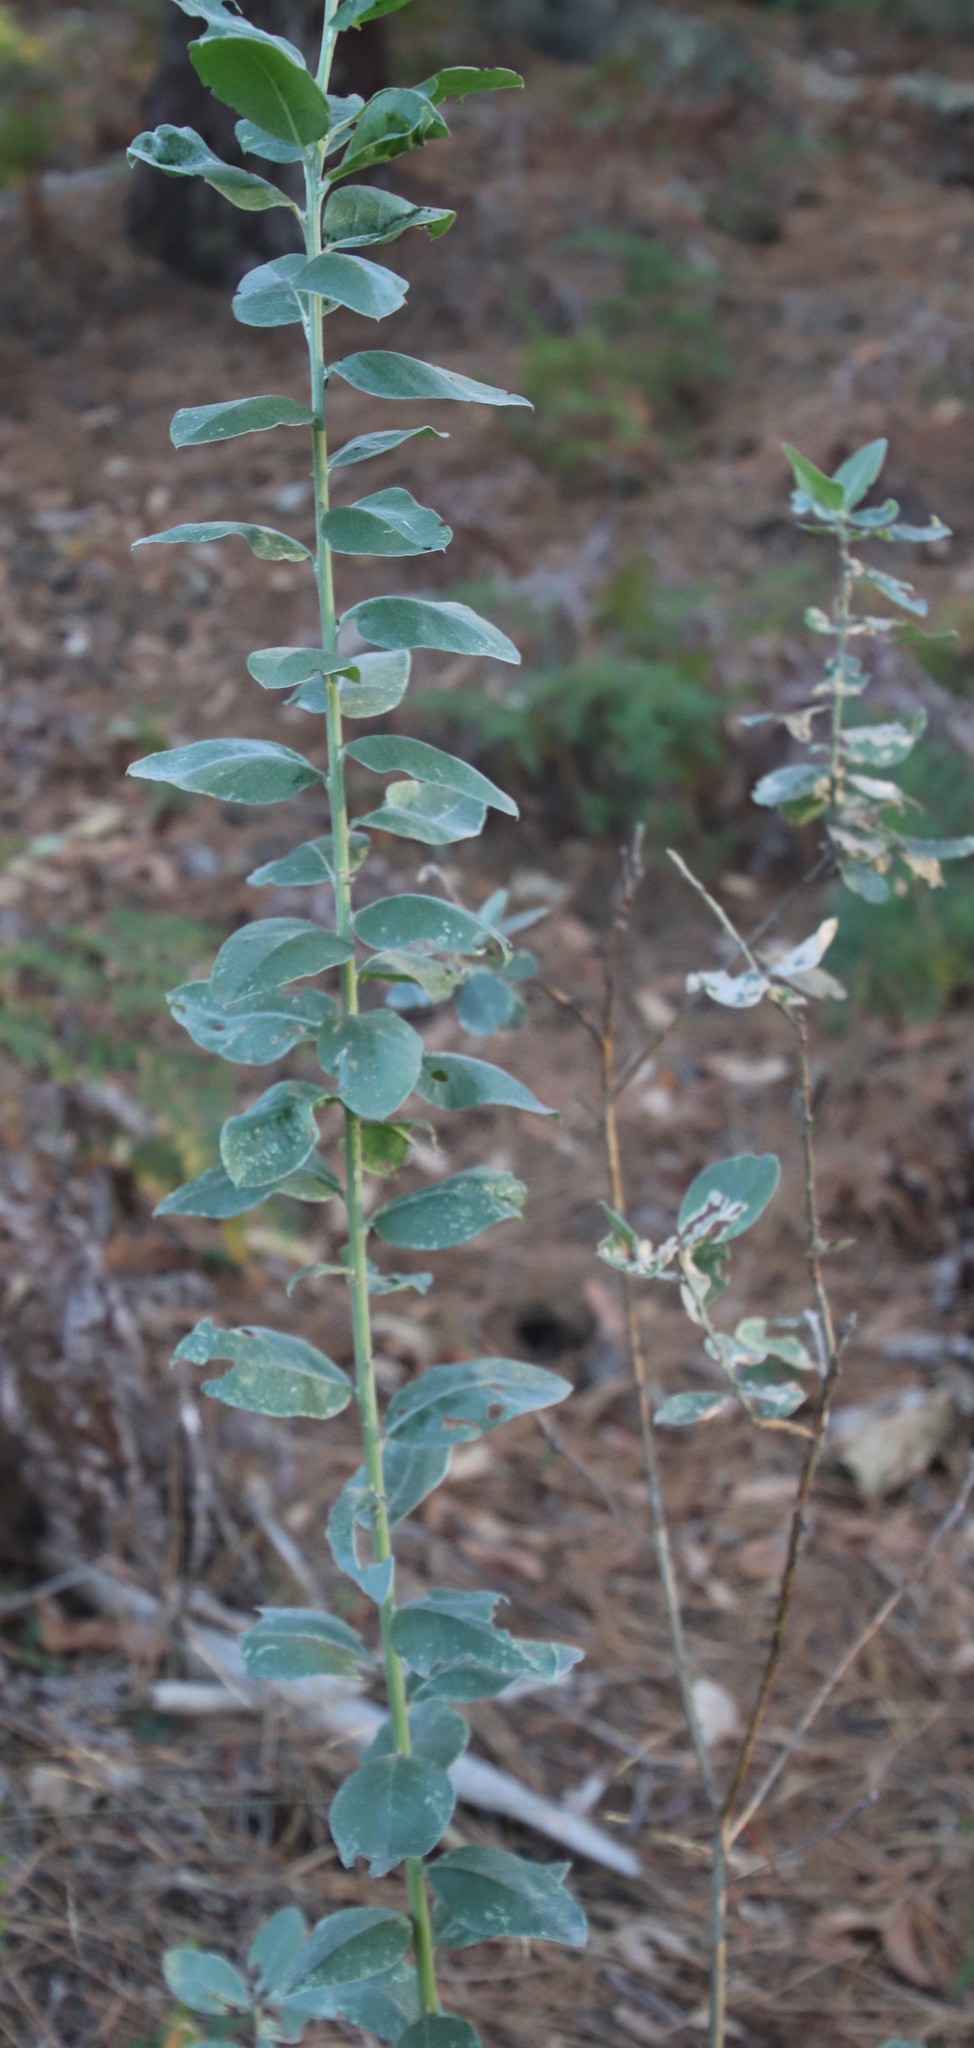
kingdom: Plantae
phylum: Tracheophyta
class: Magnoliopsida
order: Fabales
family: Fabaceae
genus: Podalyria
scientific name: Podalyria calyptrata
